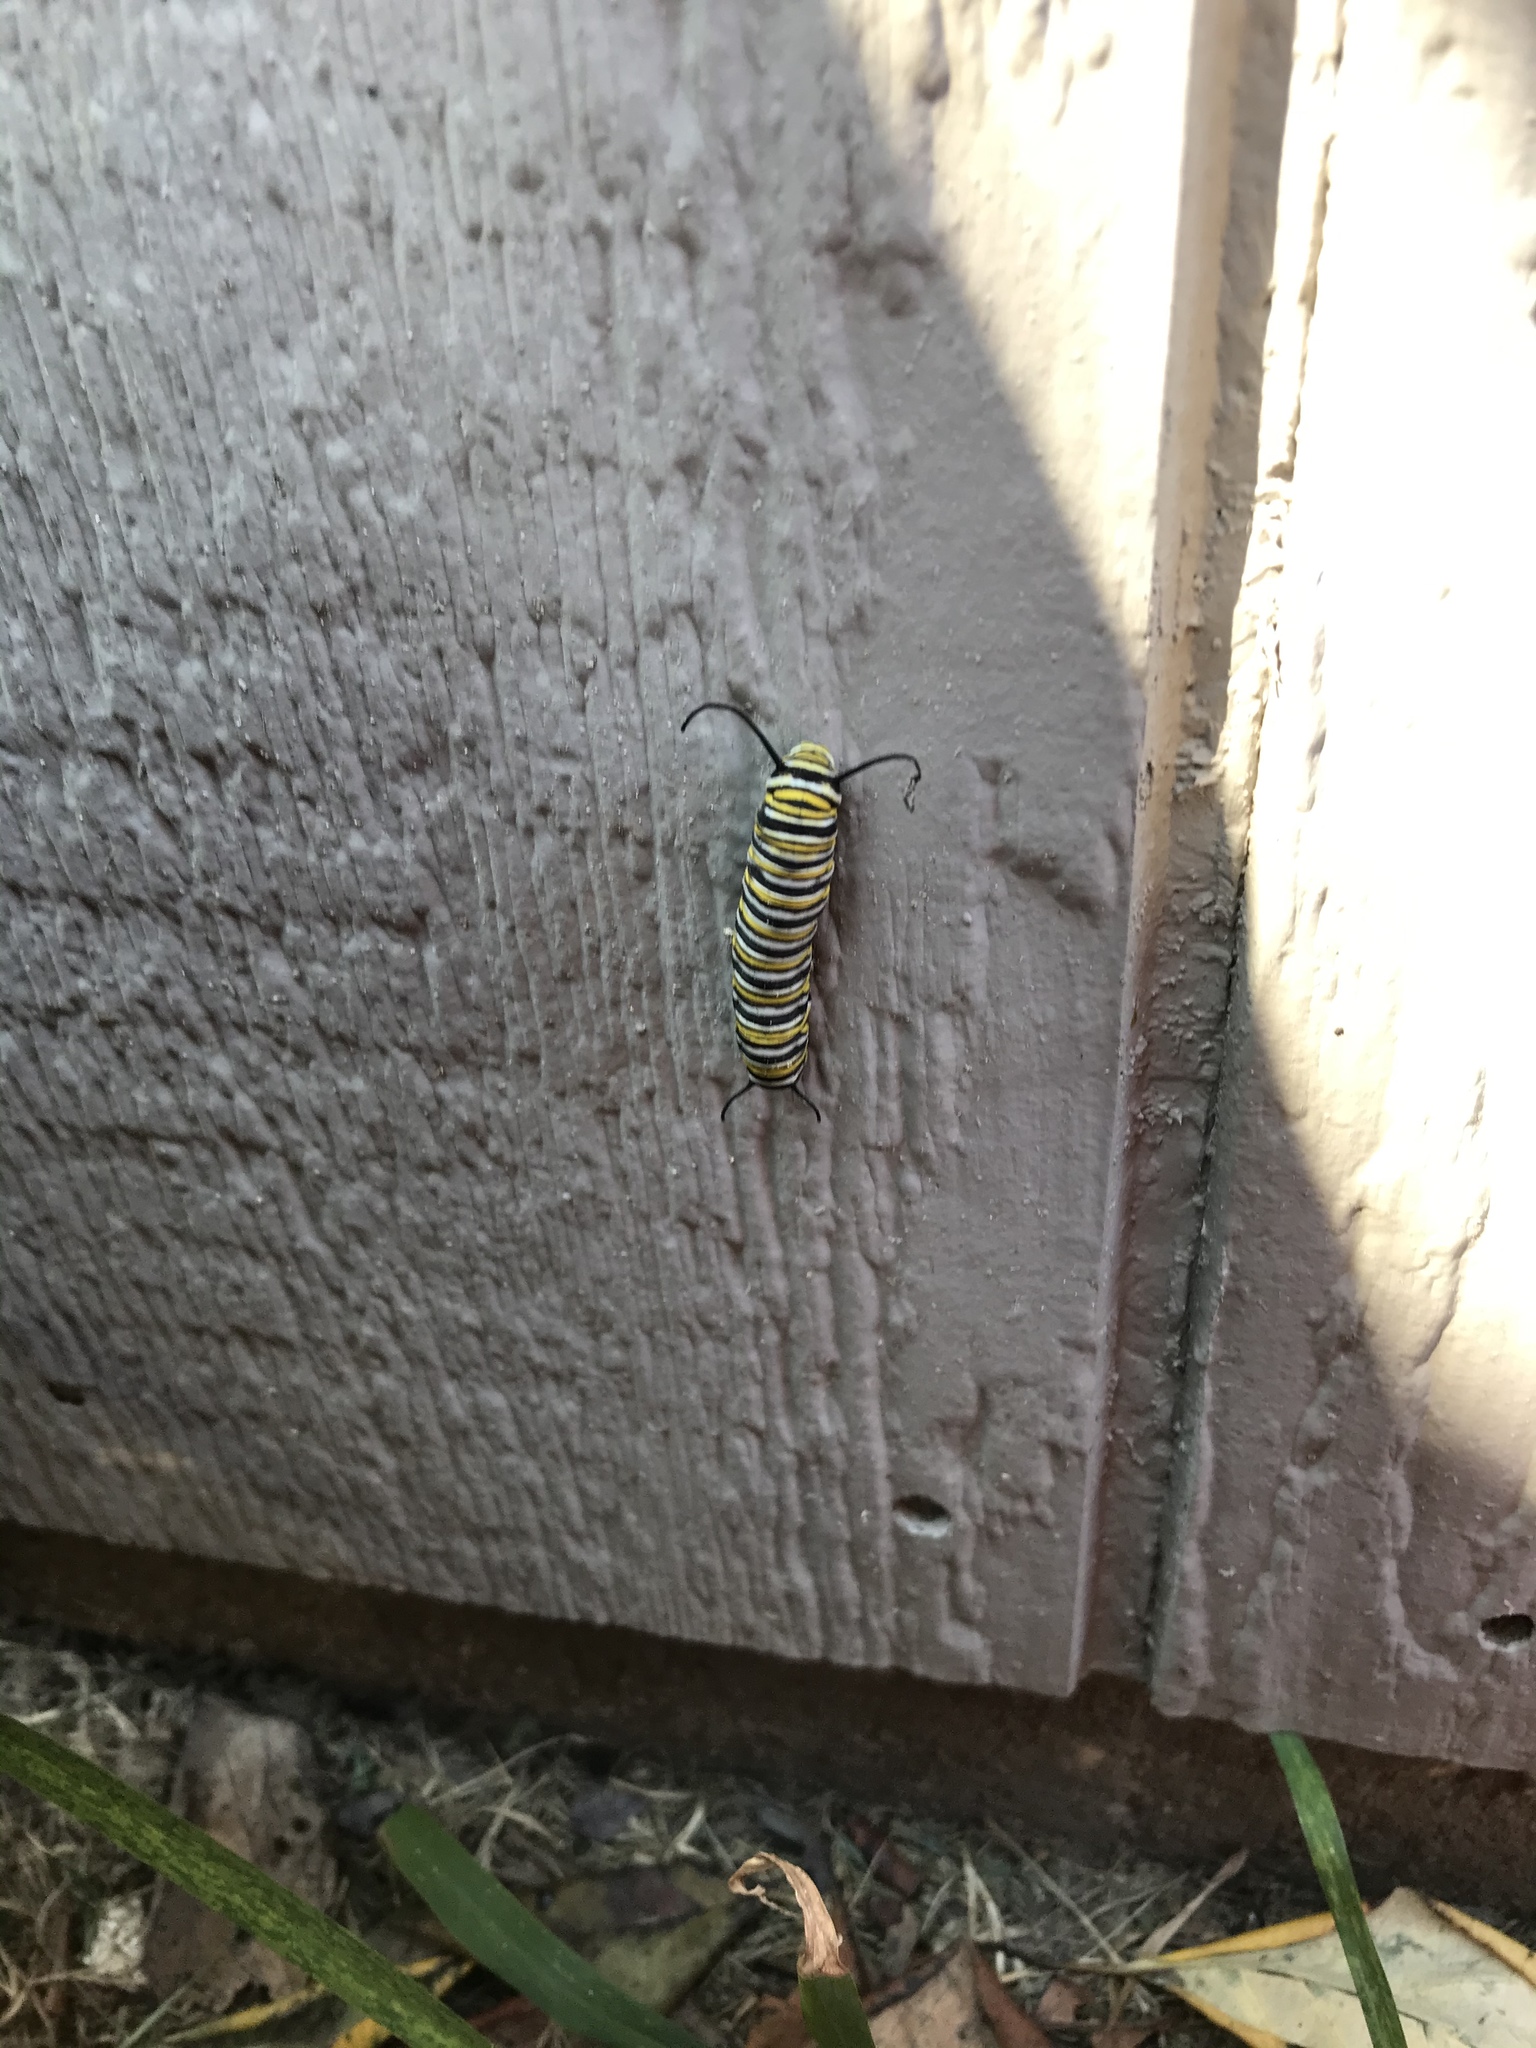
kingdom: Animalia
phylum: Arthropoda
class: Insecta
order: Lepidoptera
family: Nymphalidae
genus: Danaus
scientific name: Danaus plexippus
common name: Monarch
